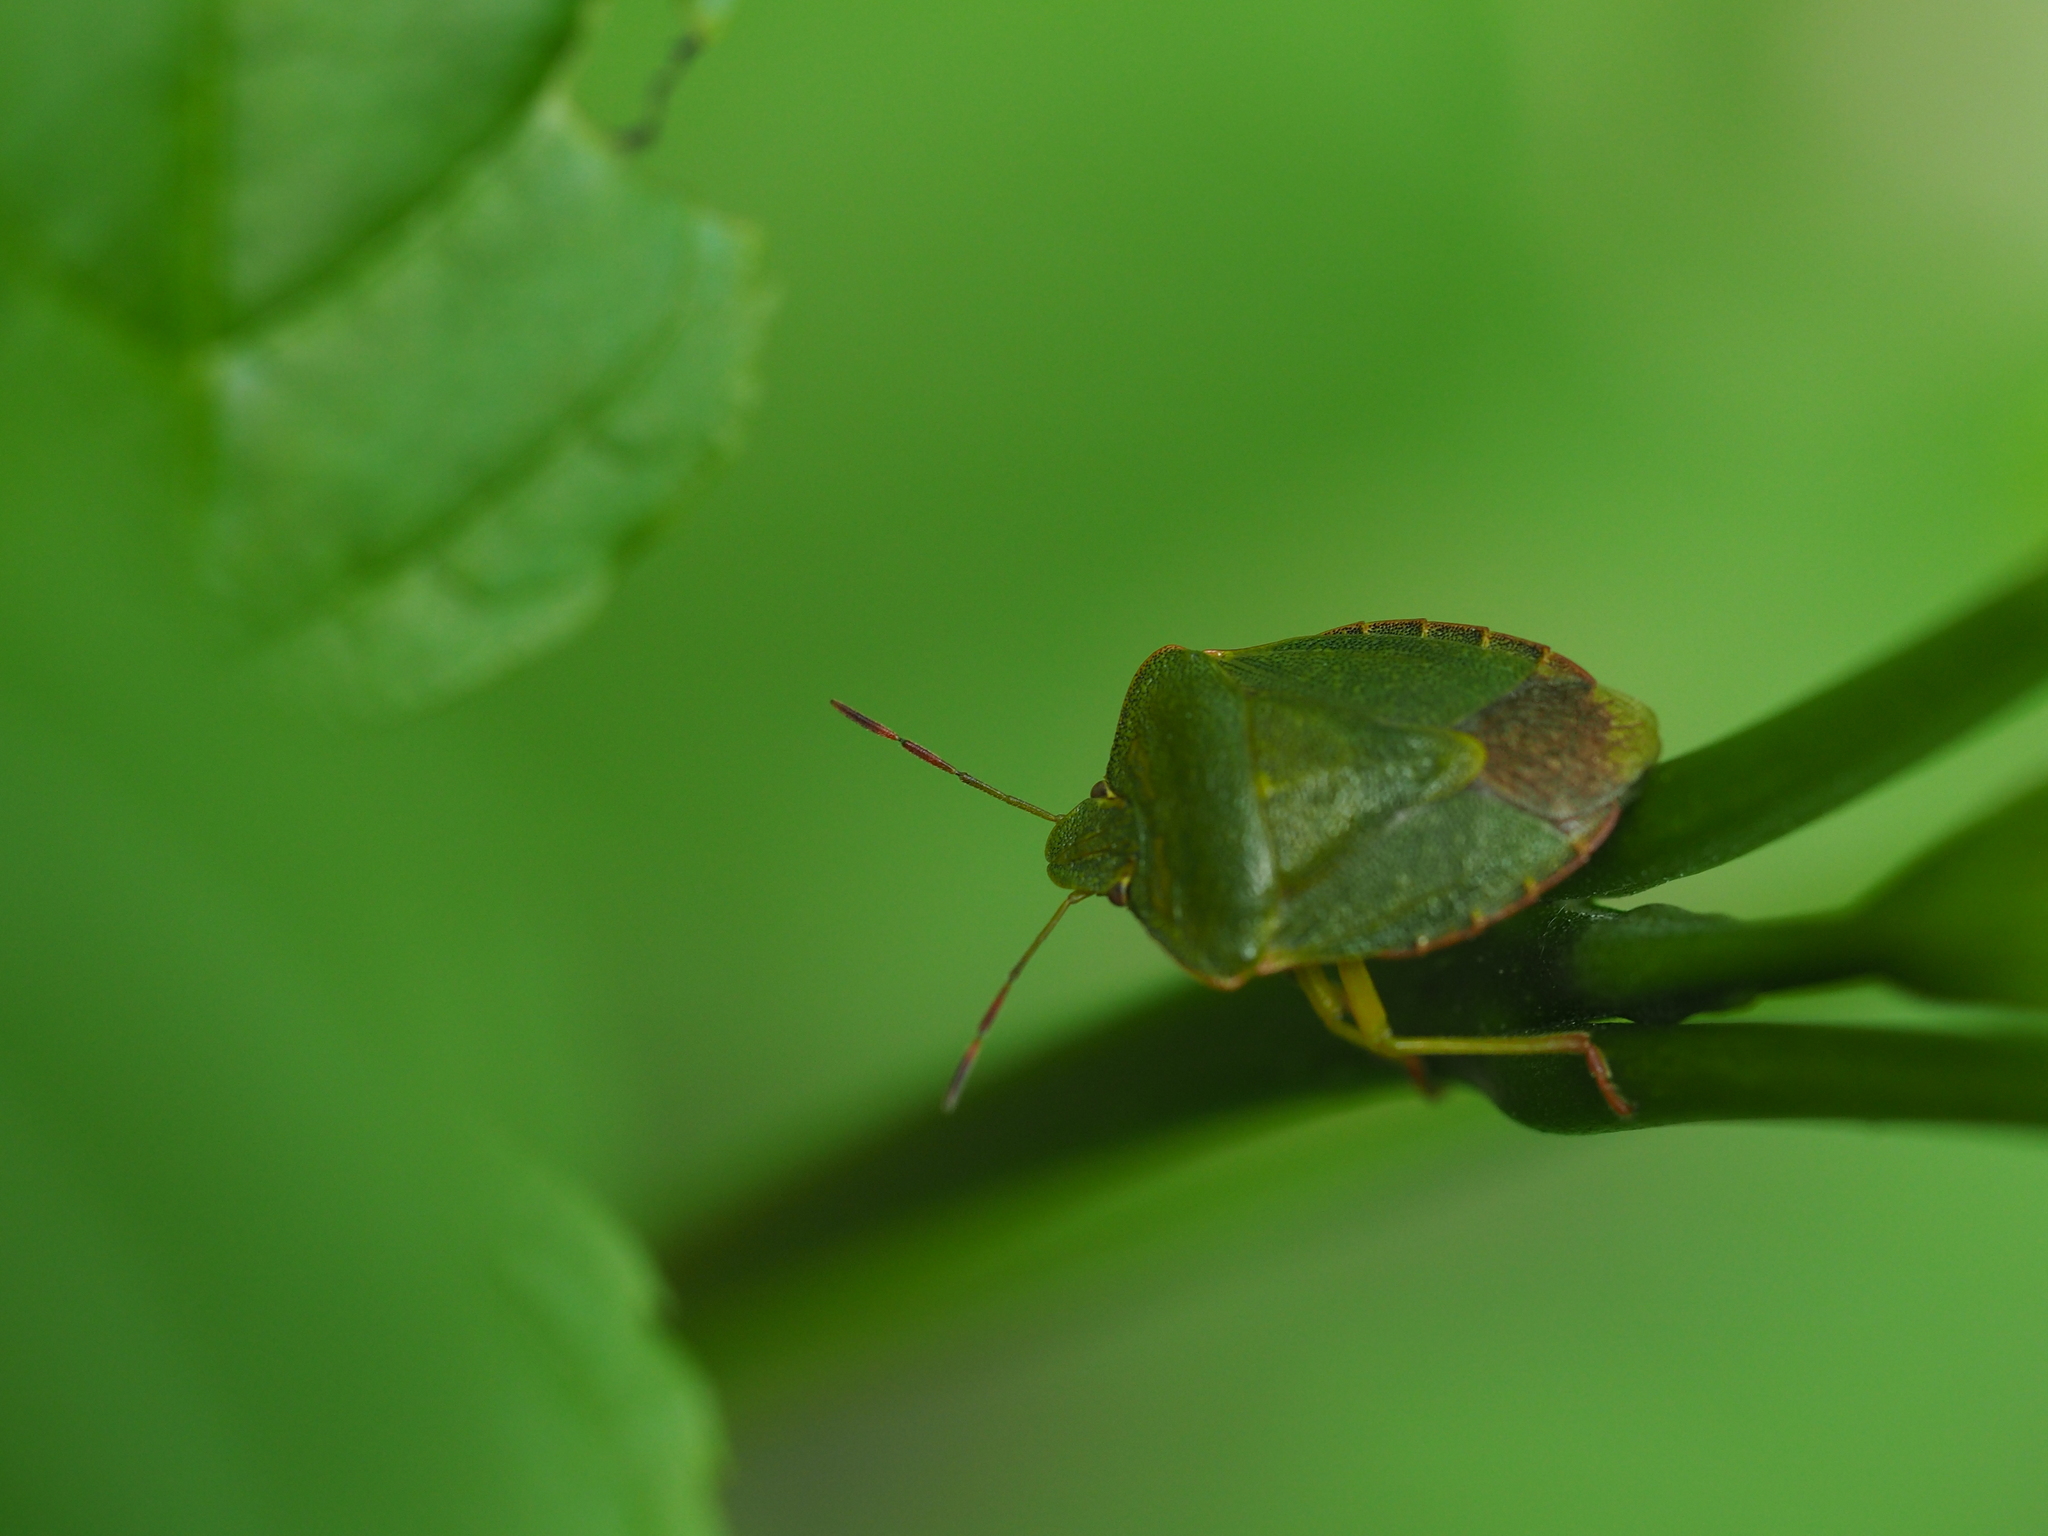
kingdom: Animalia
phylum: Arthropoda
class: Insecta
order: Hemiptera
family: Pentatomidae
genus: Palomena
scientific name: Palomena prasina
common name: Green shieldbug
